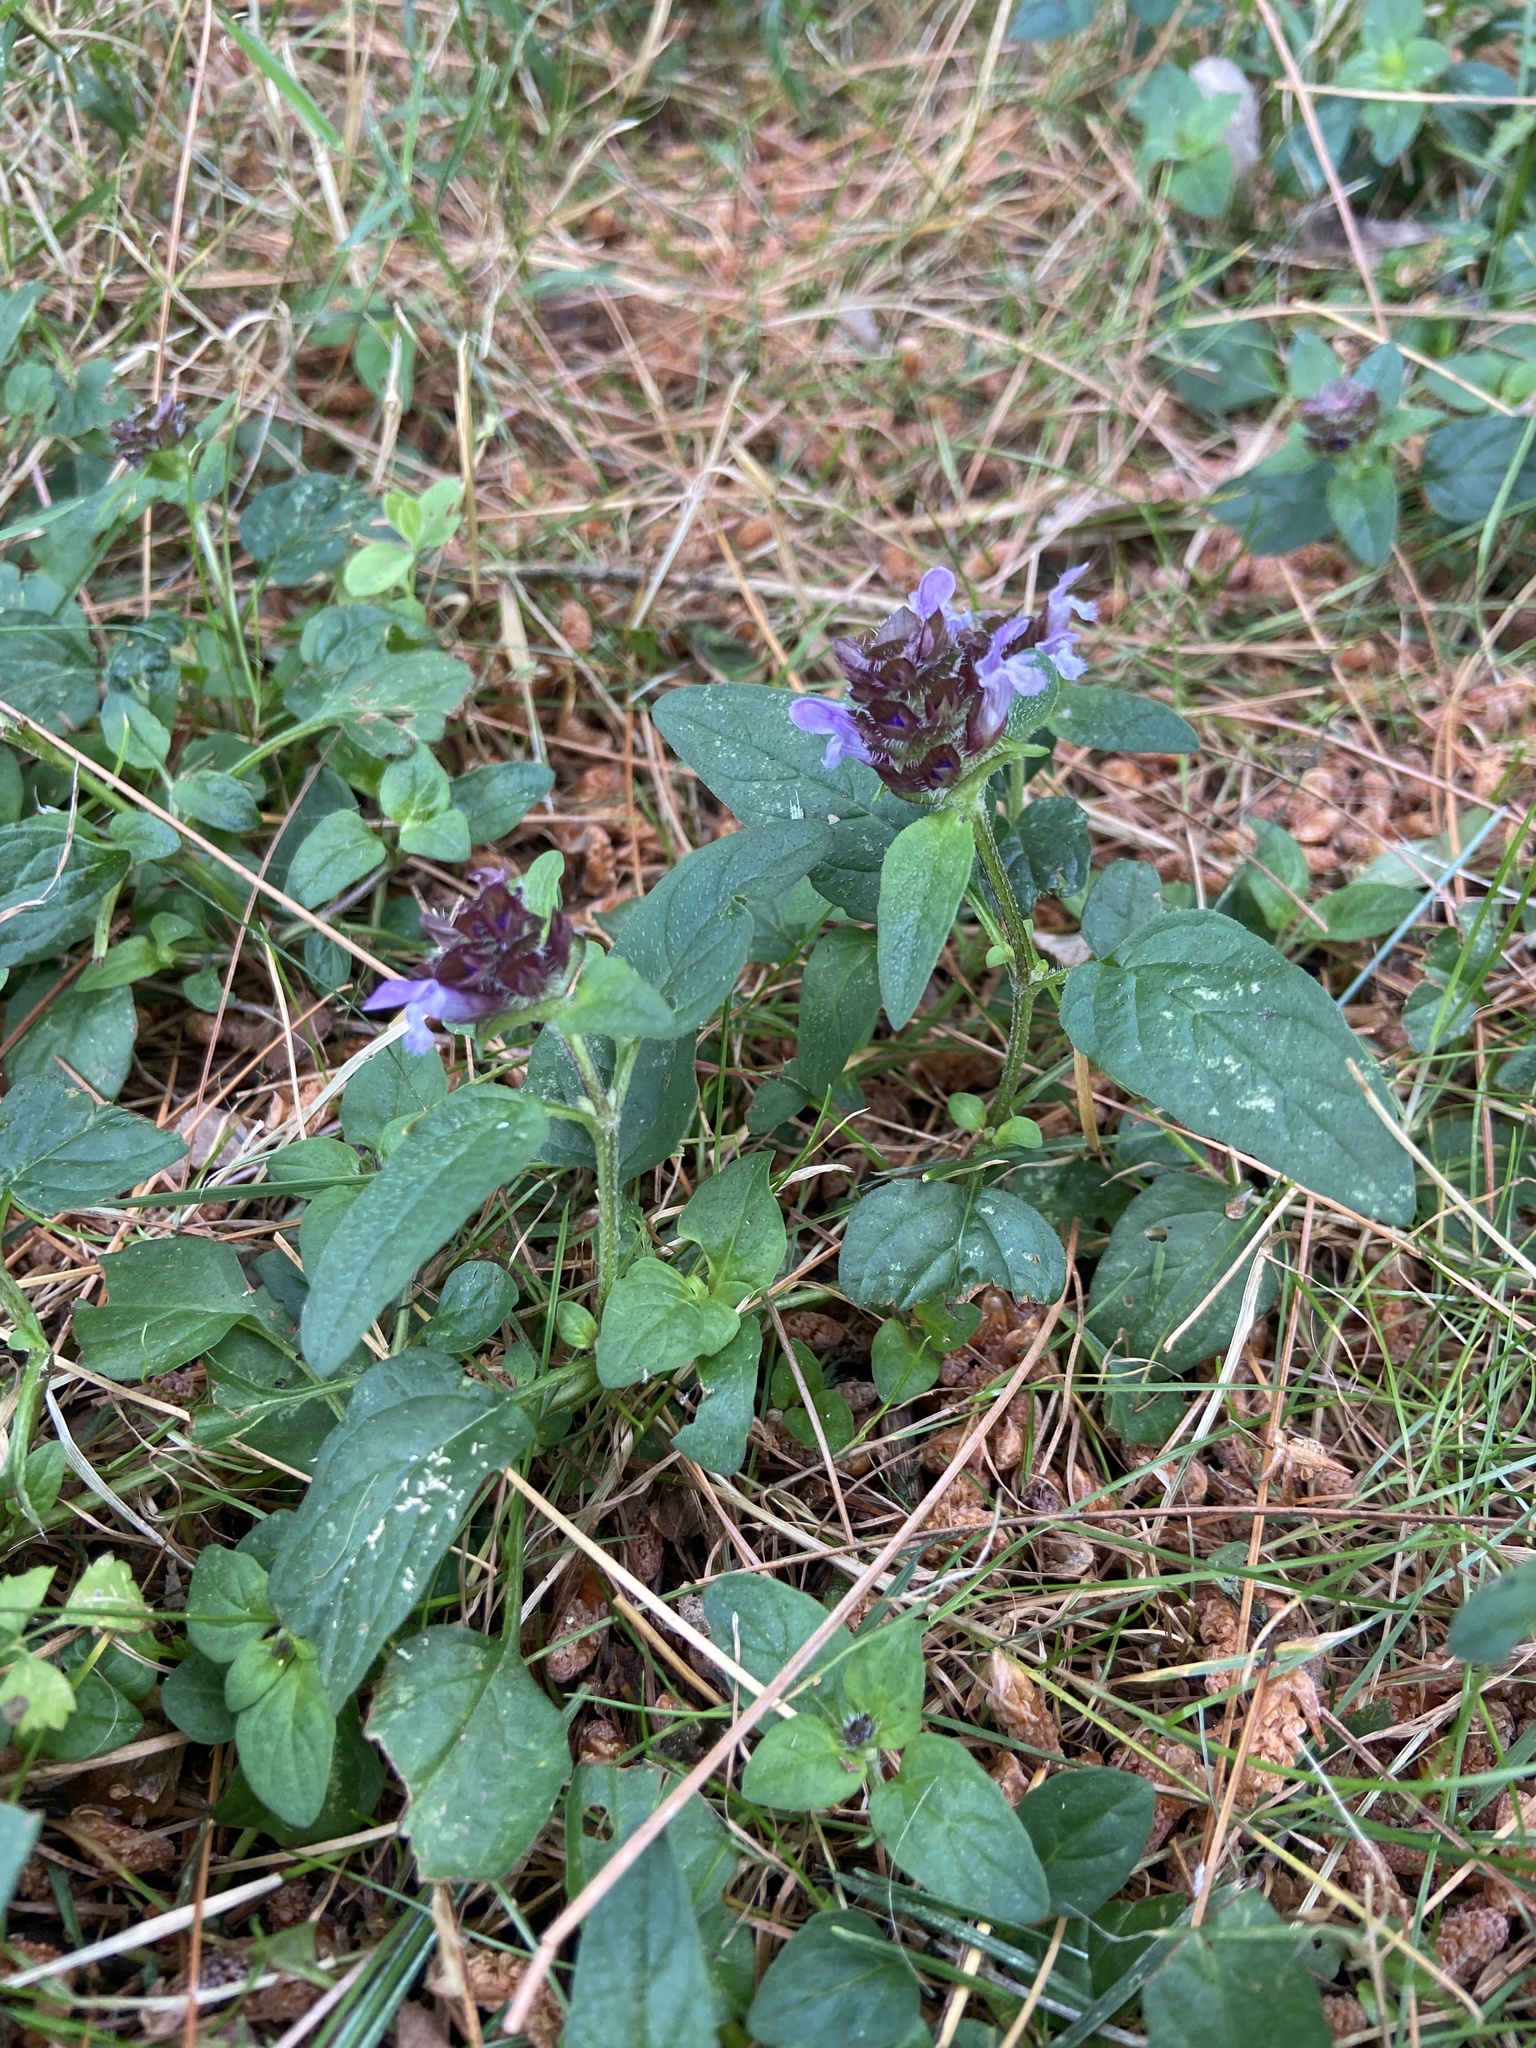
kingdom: Plantae
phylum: Tracheophyta
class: Magnoliopsida
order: Lamiales
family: Lamiaceae
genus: Prunella
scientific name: Prunella vulgaris
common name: Heal-all
